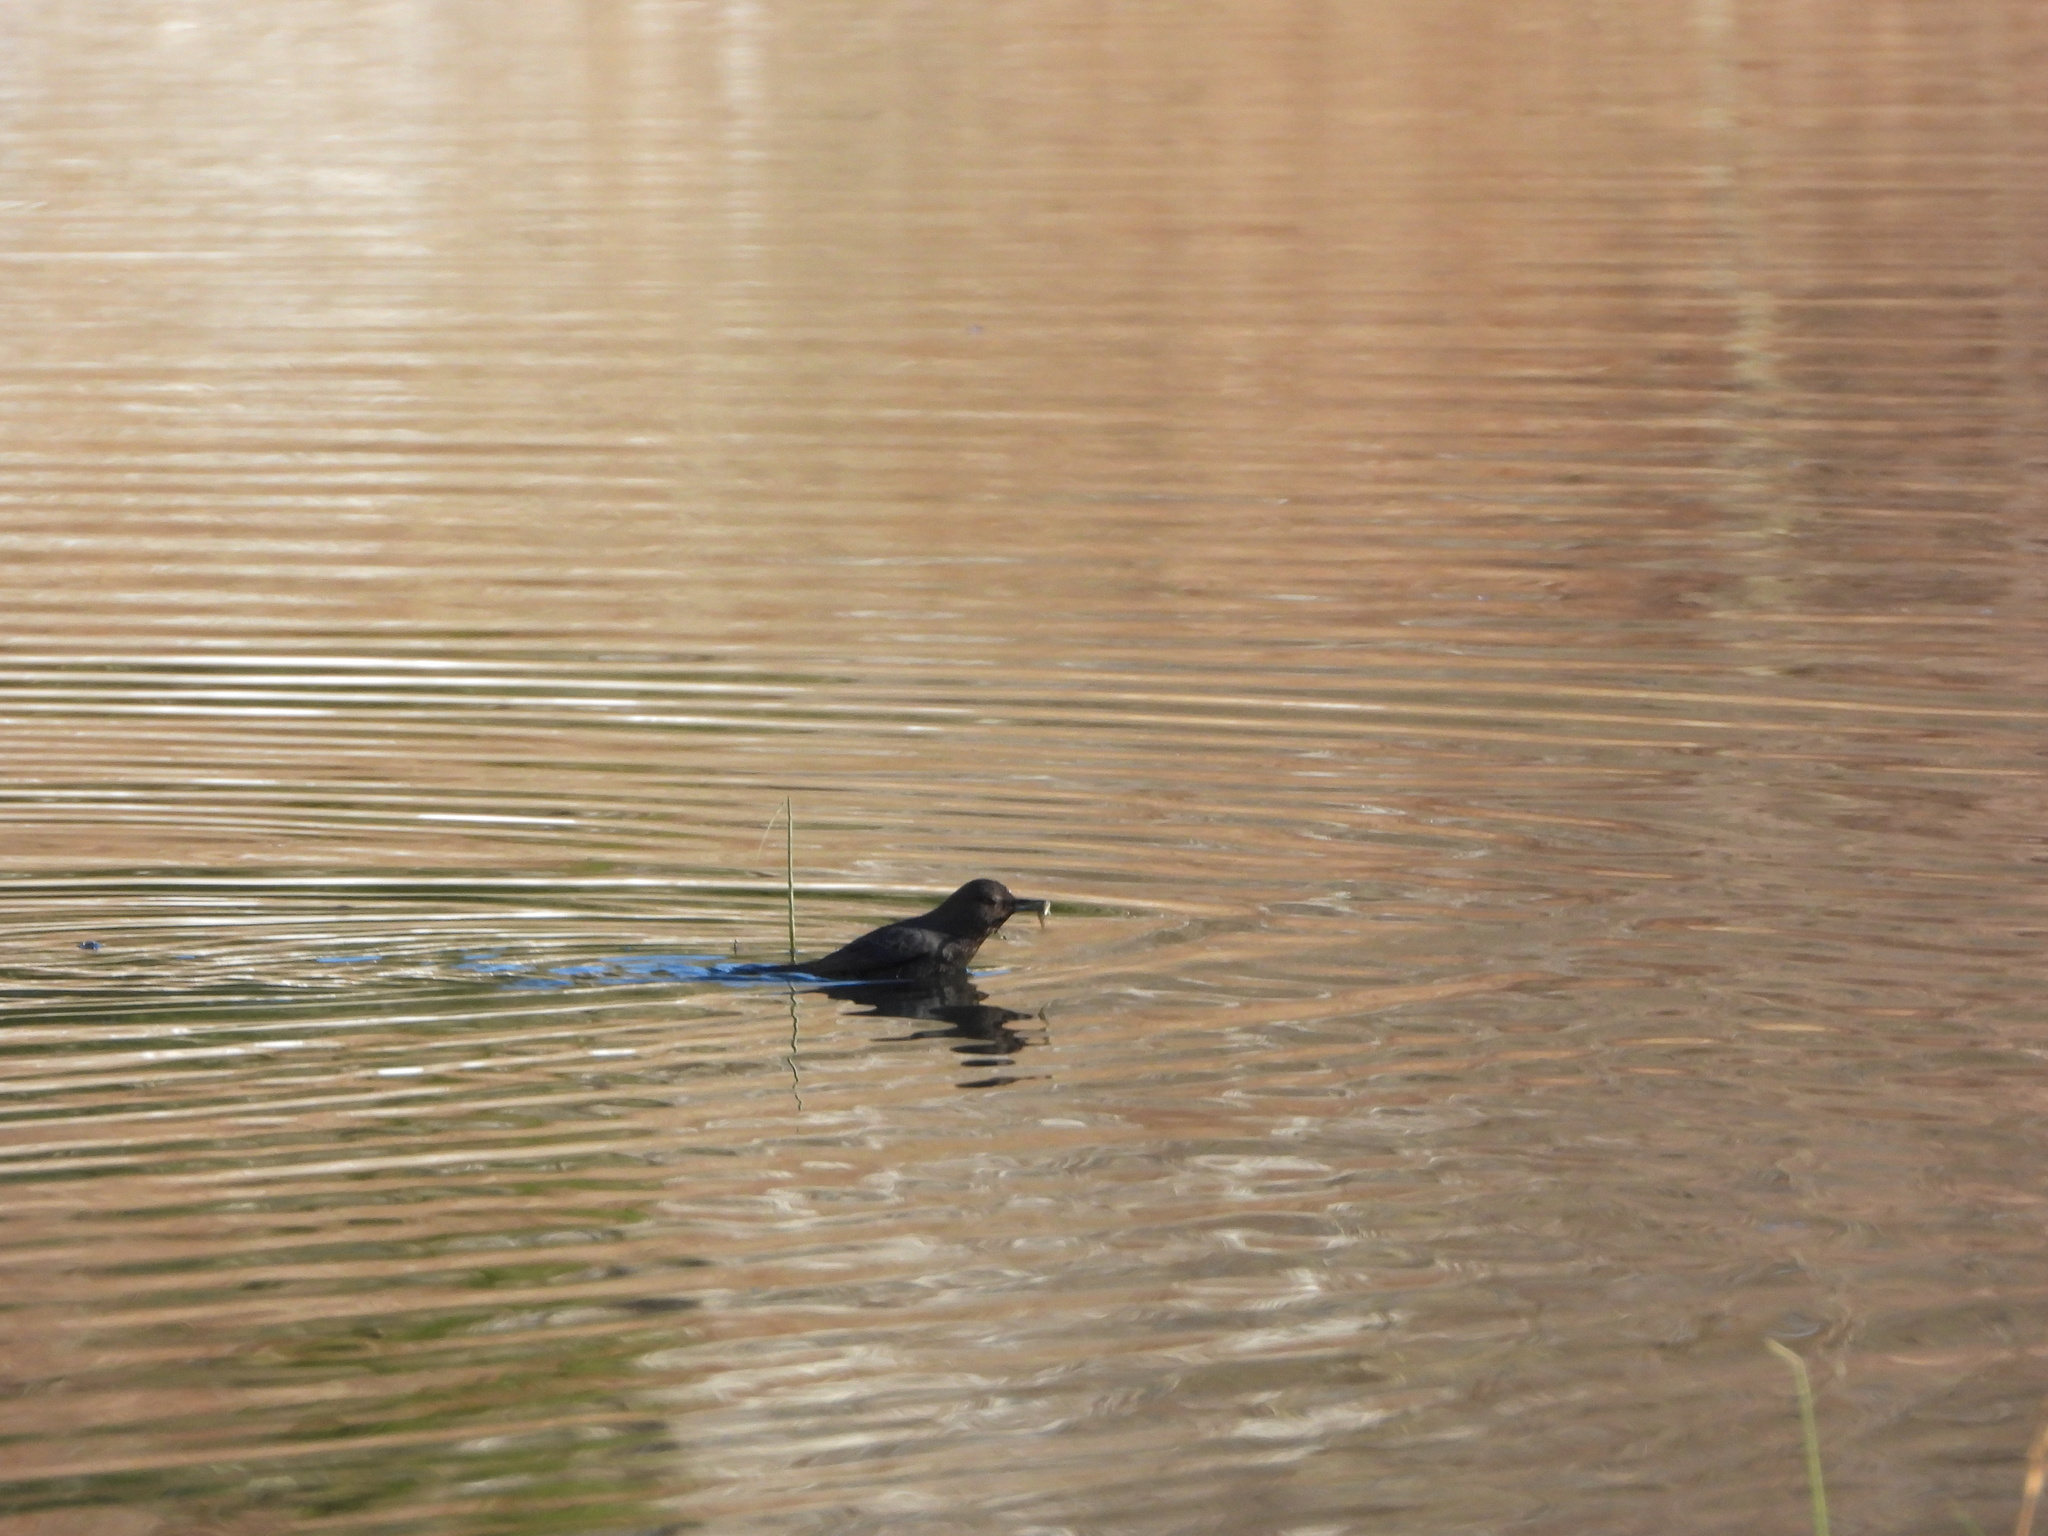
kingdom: Animalia
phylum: Chordata
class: Aves
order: Passeriformes
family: Cinclidae
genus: Cinclus
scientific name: Cinclus mexicanus
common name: American dipper
